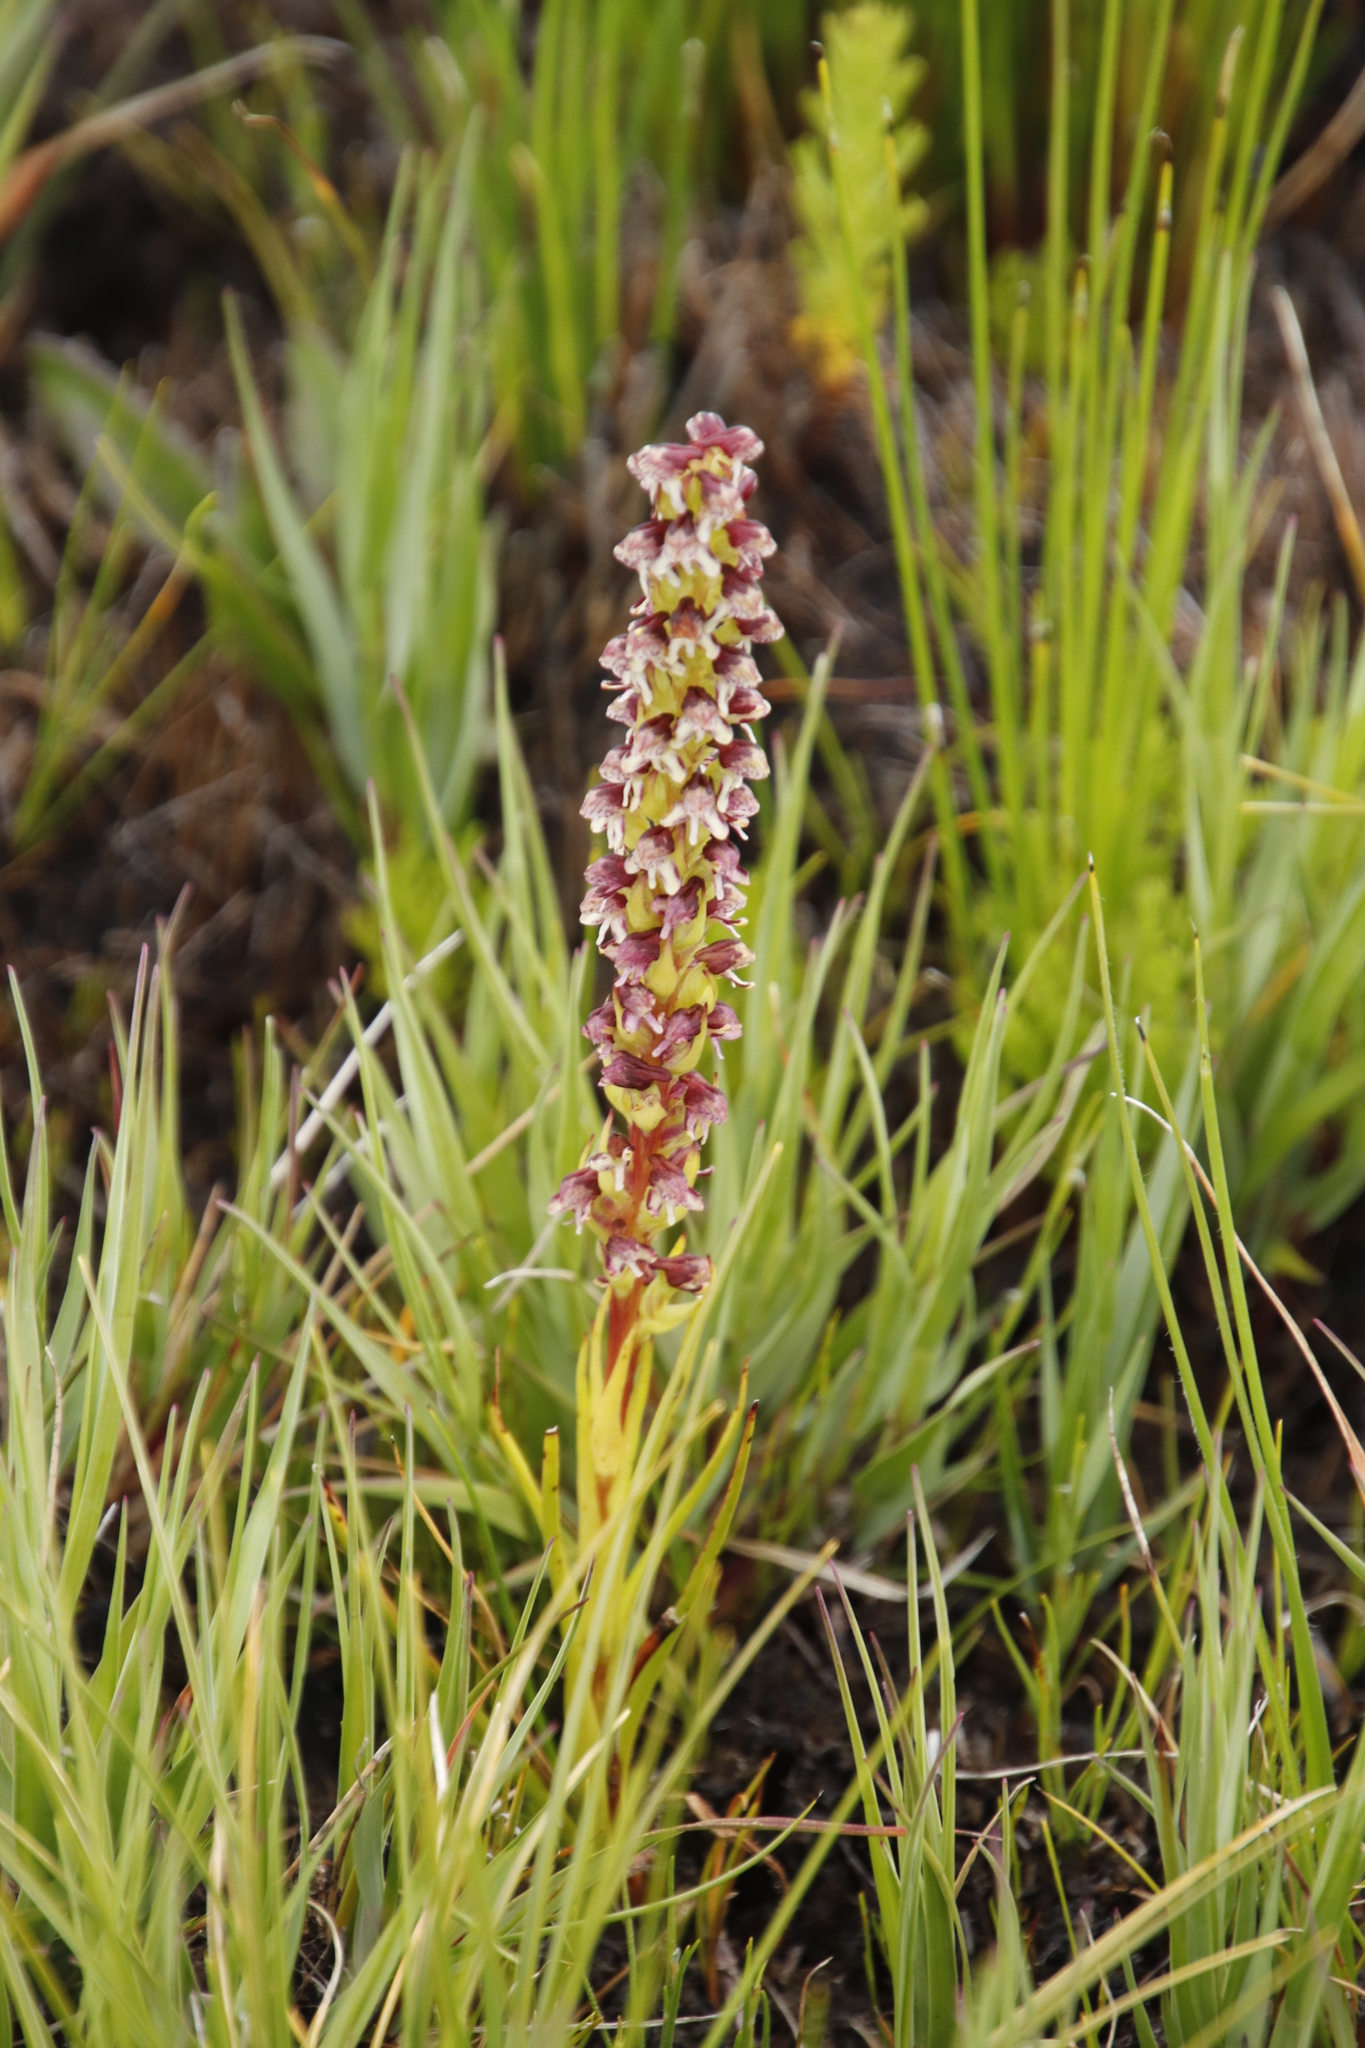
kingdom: Plantae
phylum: Tracheophyta
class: Liliopsida
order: Asparagales
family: Orchidaceae
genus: Disa
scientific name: Disa obtusa
